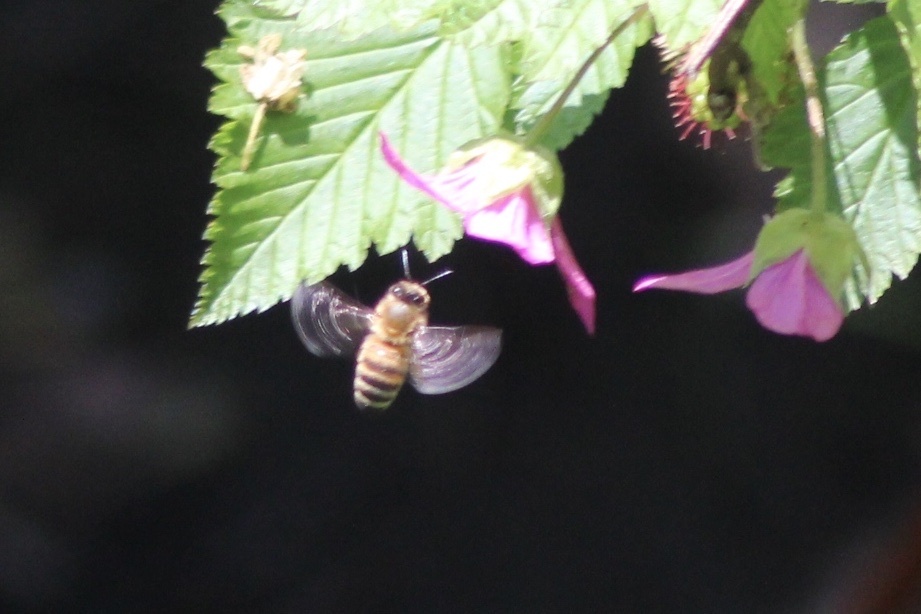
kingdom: Animalia
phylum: Arthropoda
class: Insecta
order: Hymenoptera
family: Apidae
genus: Apis
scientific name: Apis mellifera
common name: Honey bee
